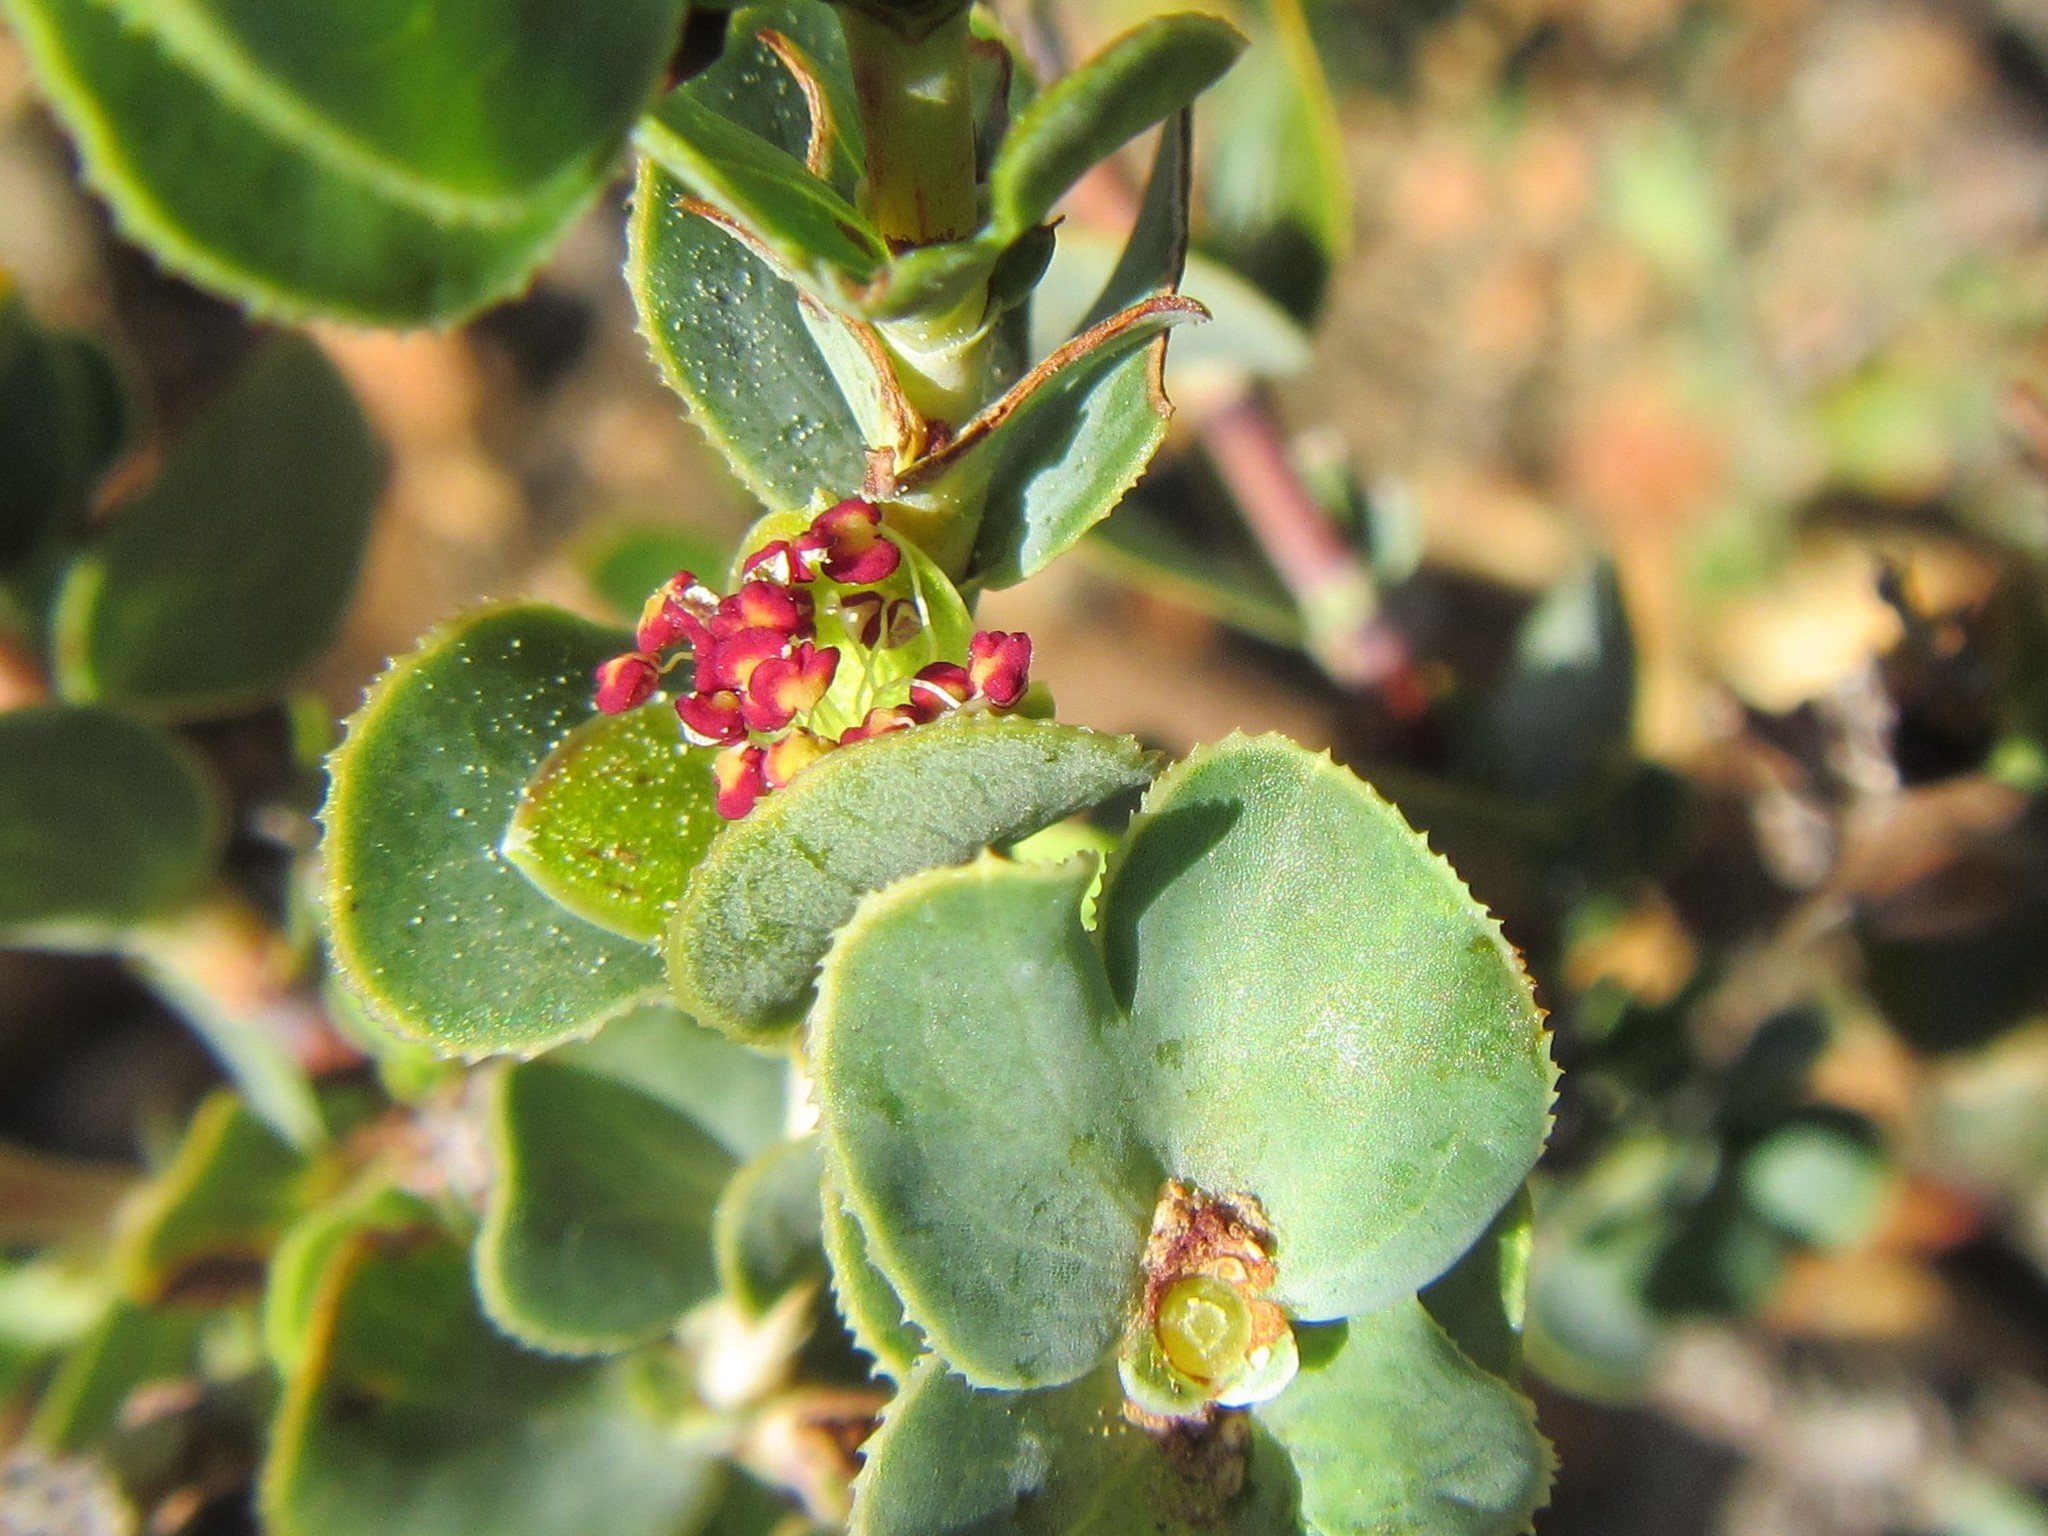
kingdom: Plantae
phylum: Tracheophyta
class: Magnoliopsida
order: Rosales
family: Rosaceae
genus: Cliffortia
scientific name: Cliffortia crenata
